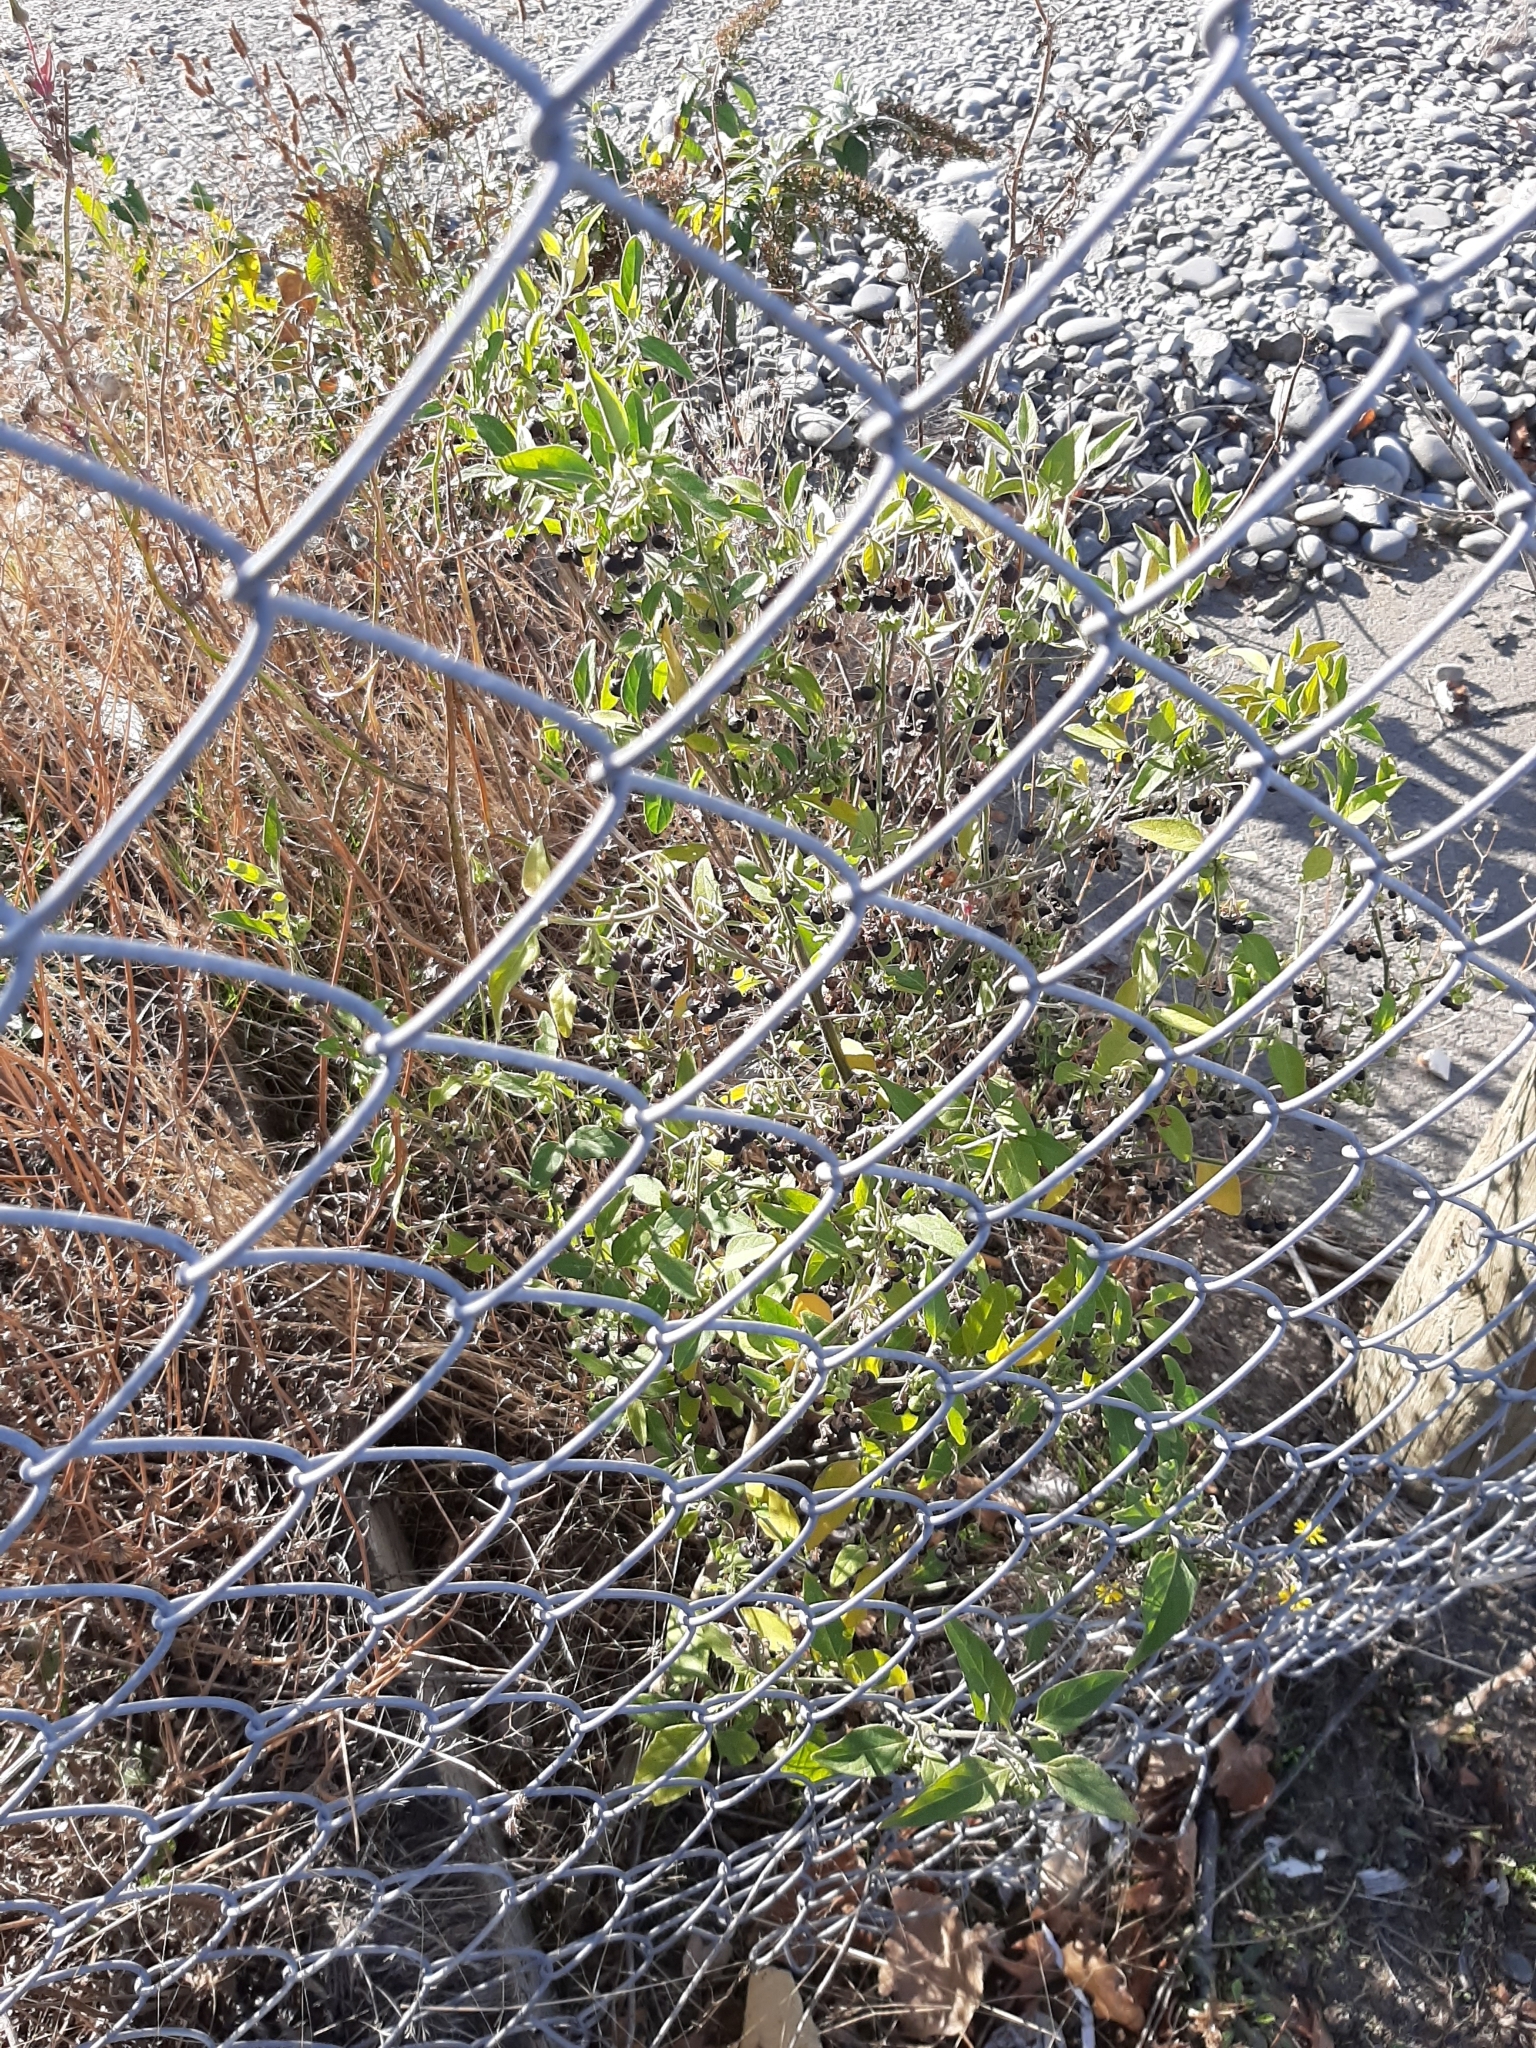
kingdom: Plantae
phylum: Tracheophyta
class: Magnoliopsida
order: Solanales
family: Solanaceae
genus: Solanum
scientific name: Solanum chenopodioides
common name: Tall nightshade
